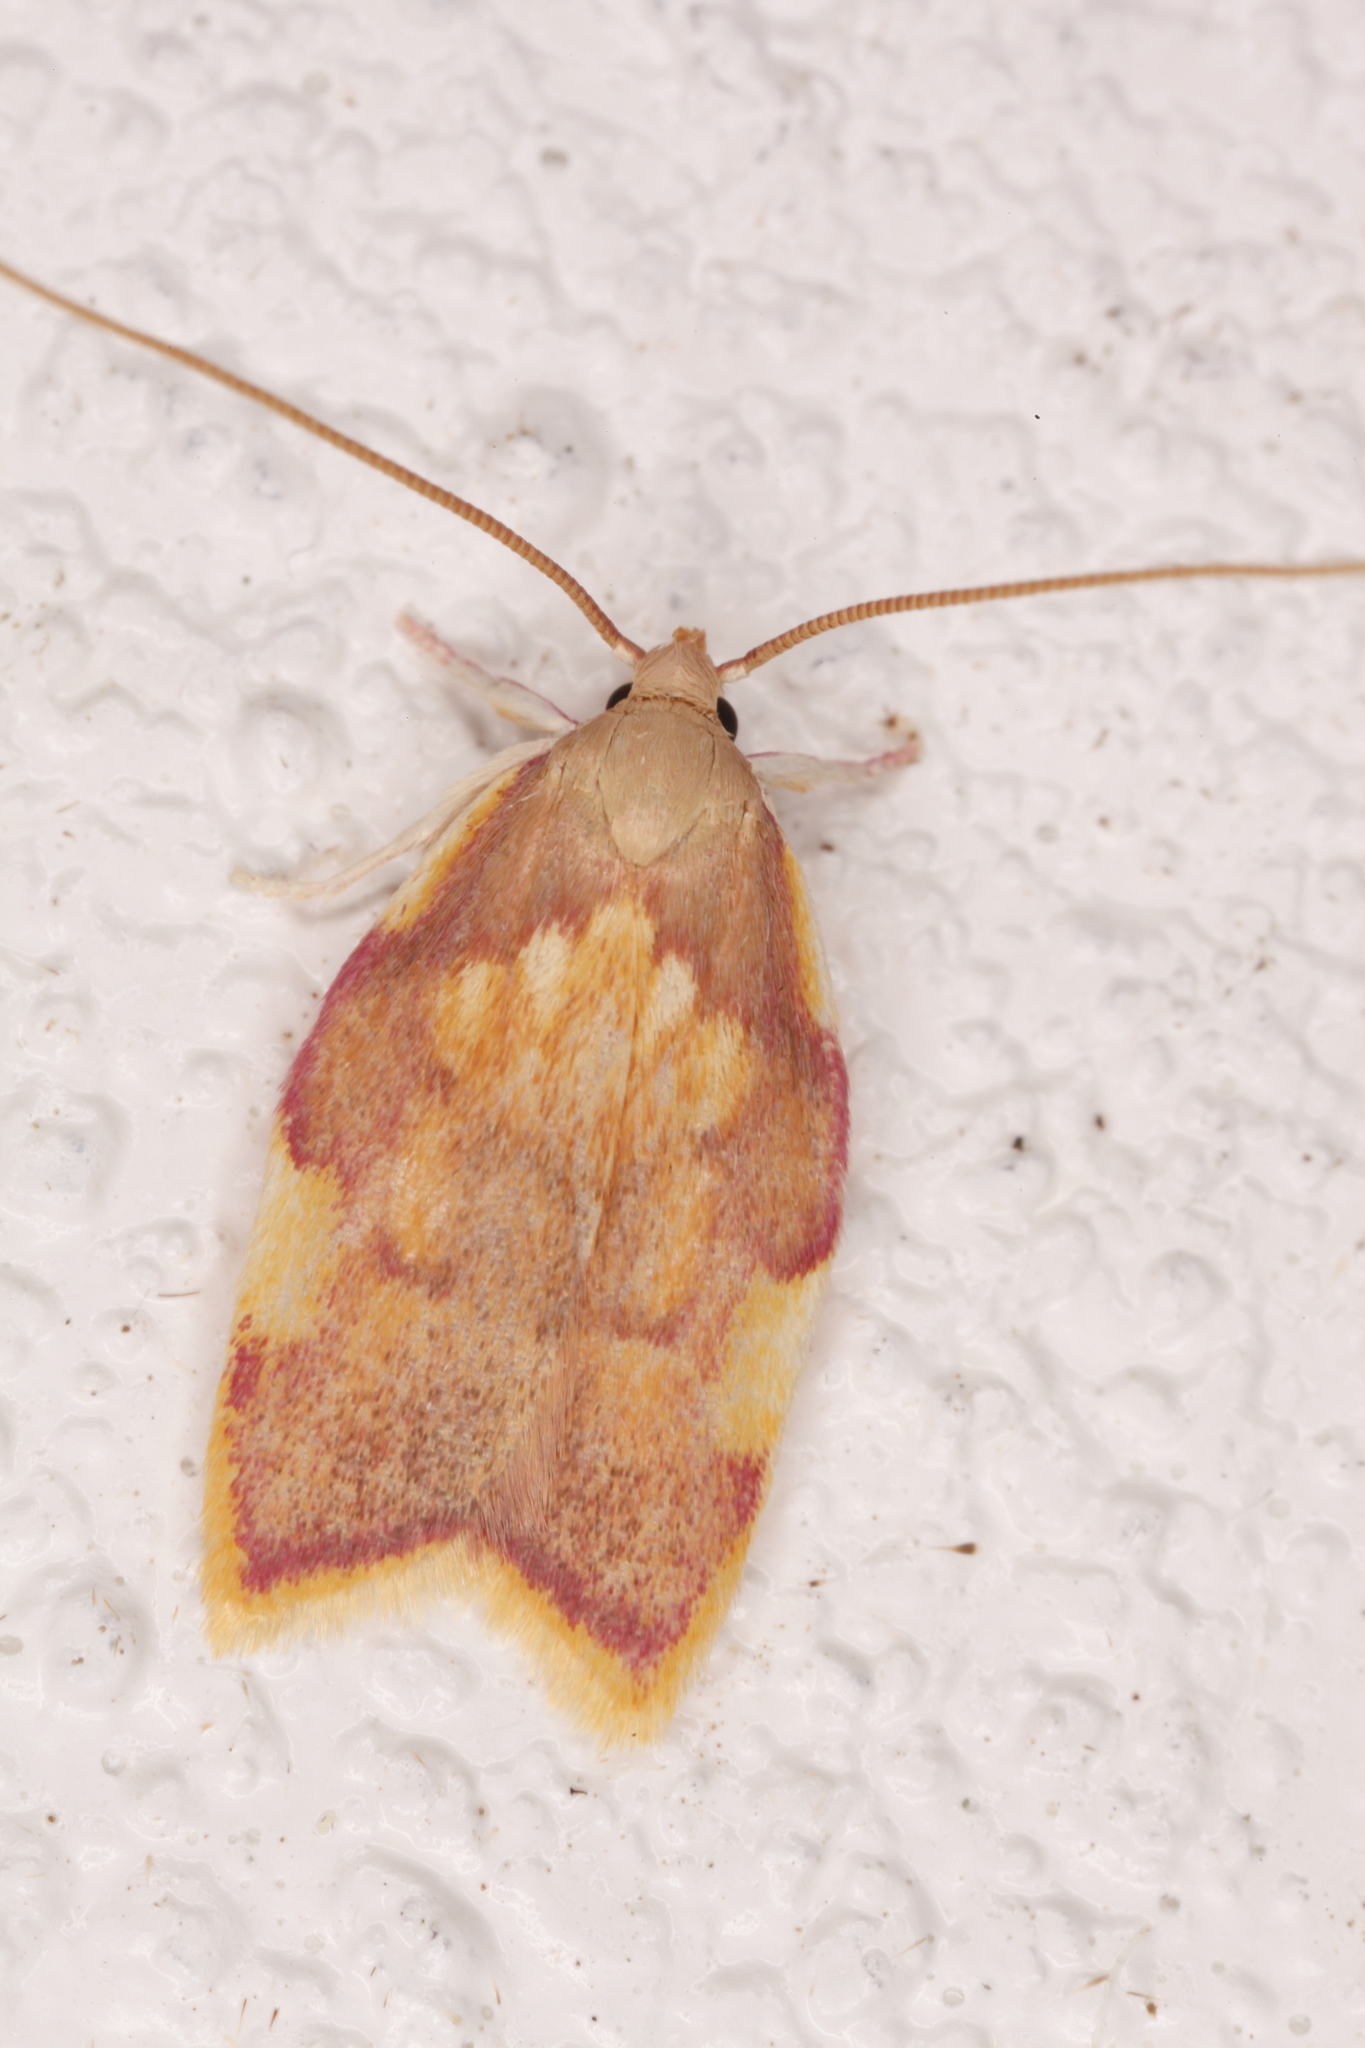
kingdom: Animalia
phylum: Arthropoda
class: Insecta
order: Lepidoptera
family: Peleopodidae
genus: Carcina
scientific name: Carcina quercana
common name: Moth
